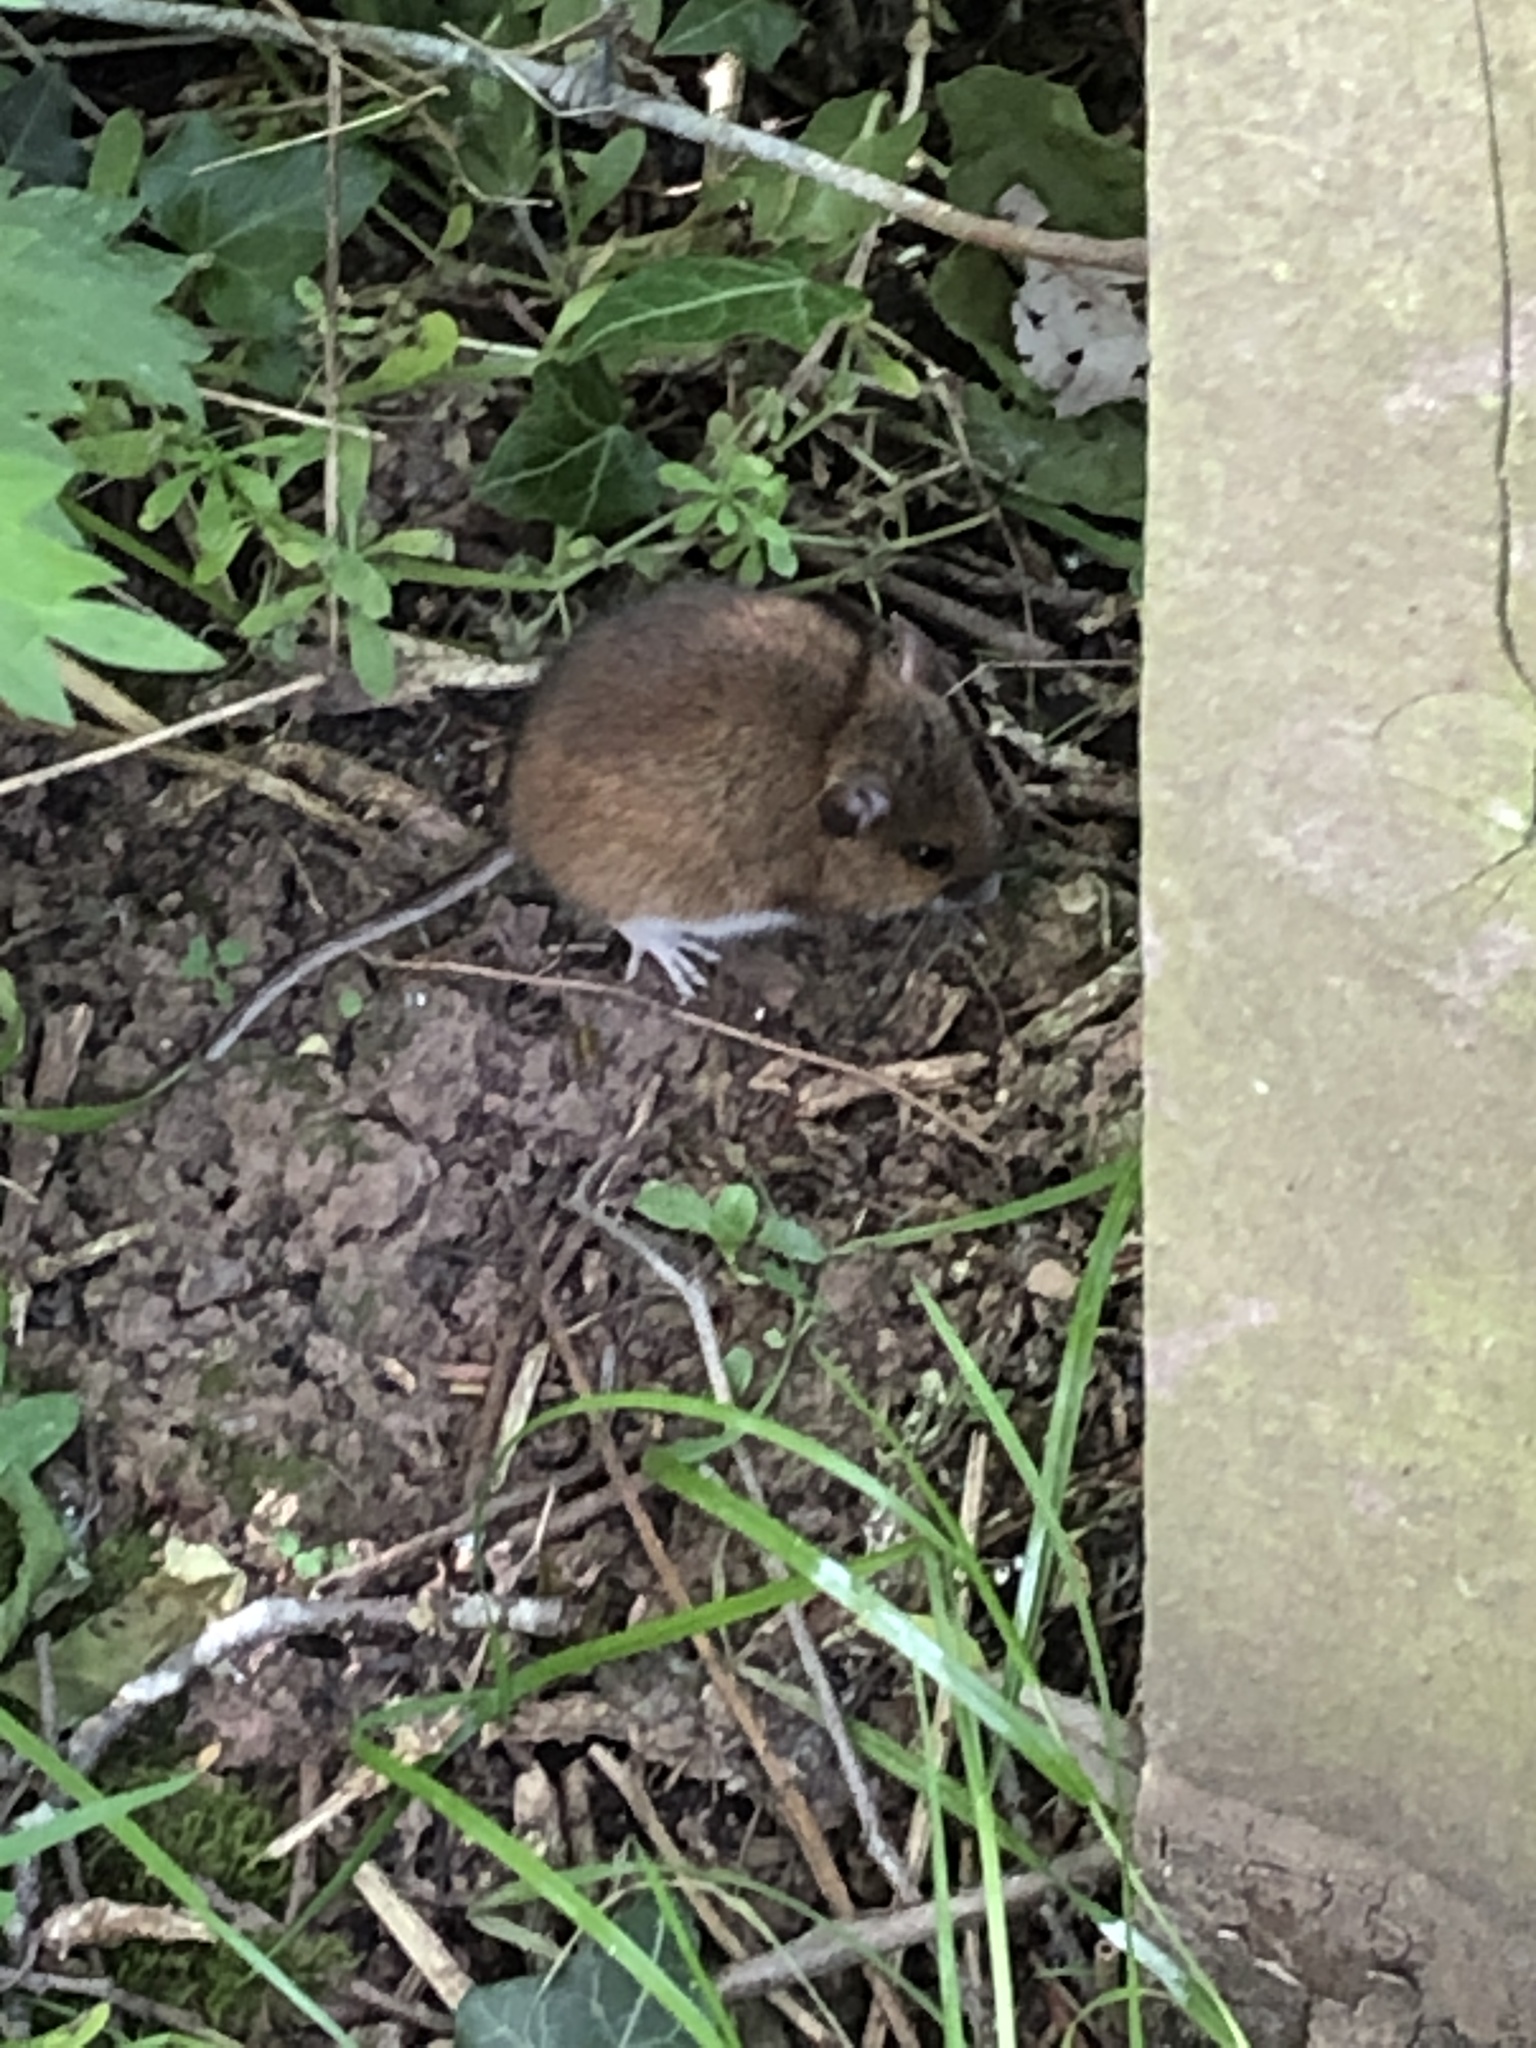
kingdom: Animalia
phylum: Chordata
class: Mammalia
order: Rodentia
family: Muridae
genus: Apodemus
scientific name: Apodemus sylvaticus
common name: Wood mouse
